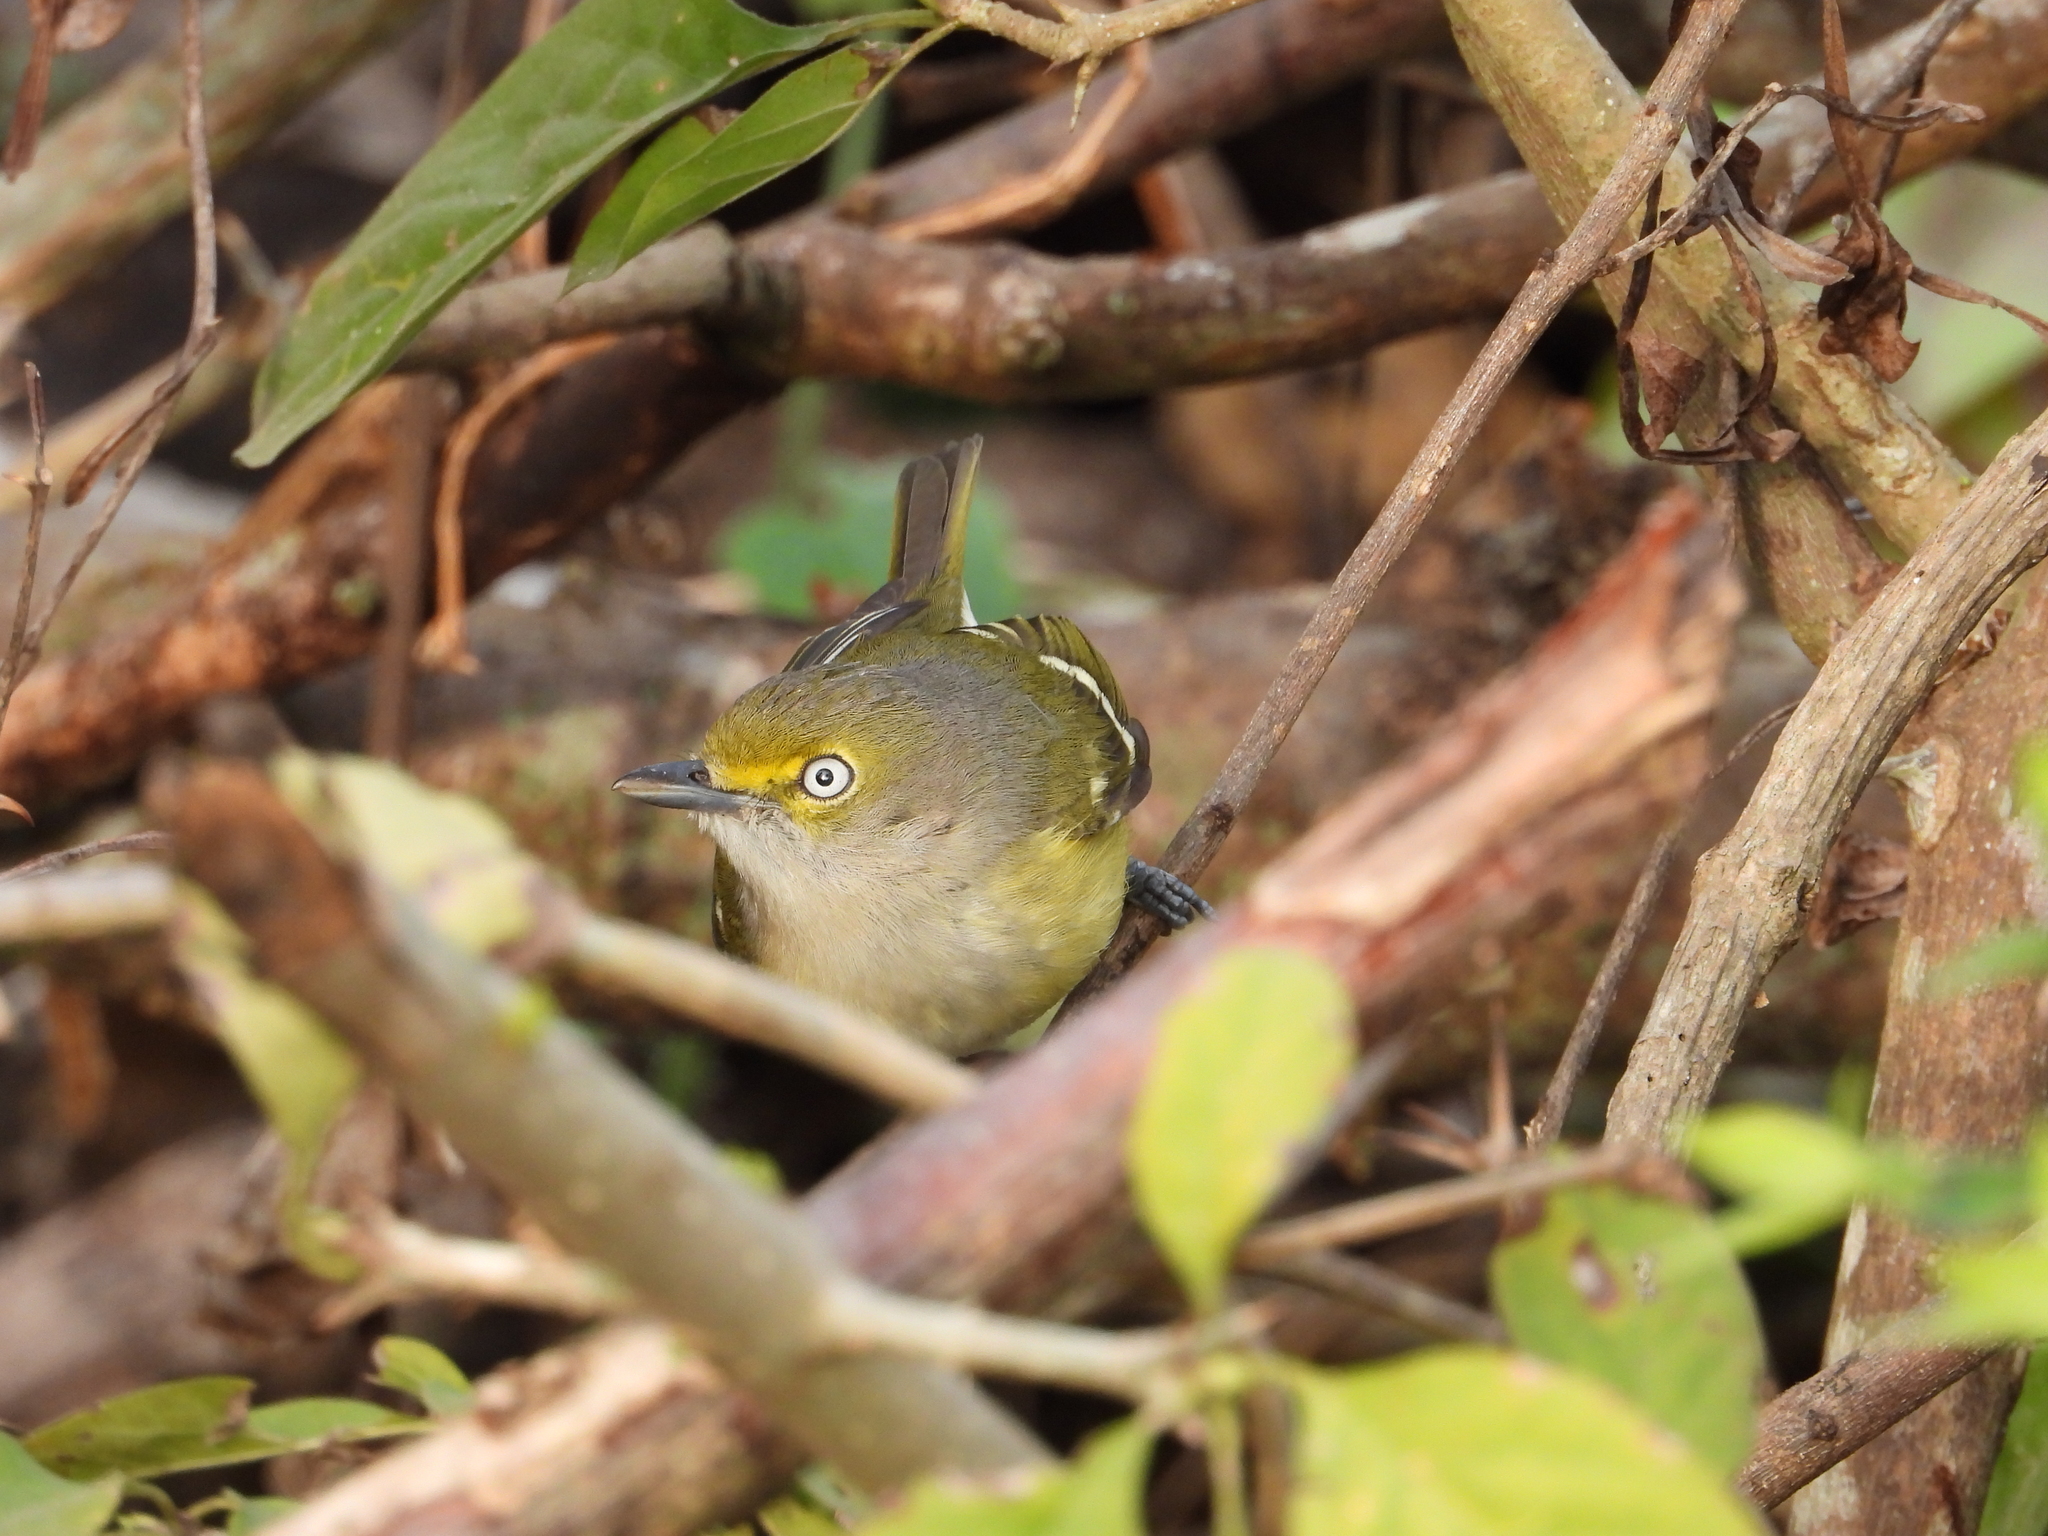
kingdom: Animalia
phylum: Chordata
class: Aves
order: Passeriformes
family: Vireonidae
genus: Vireo
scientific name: Vireo griseus
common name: White-eyed vireo
